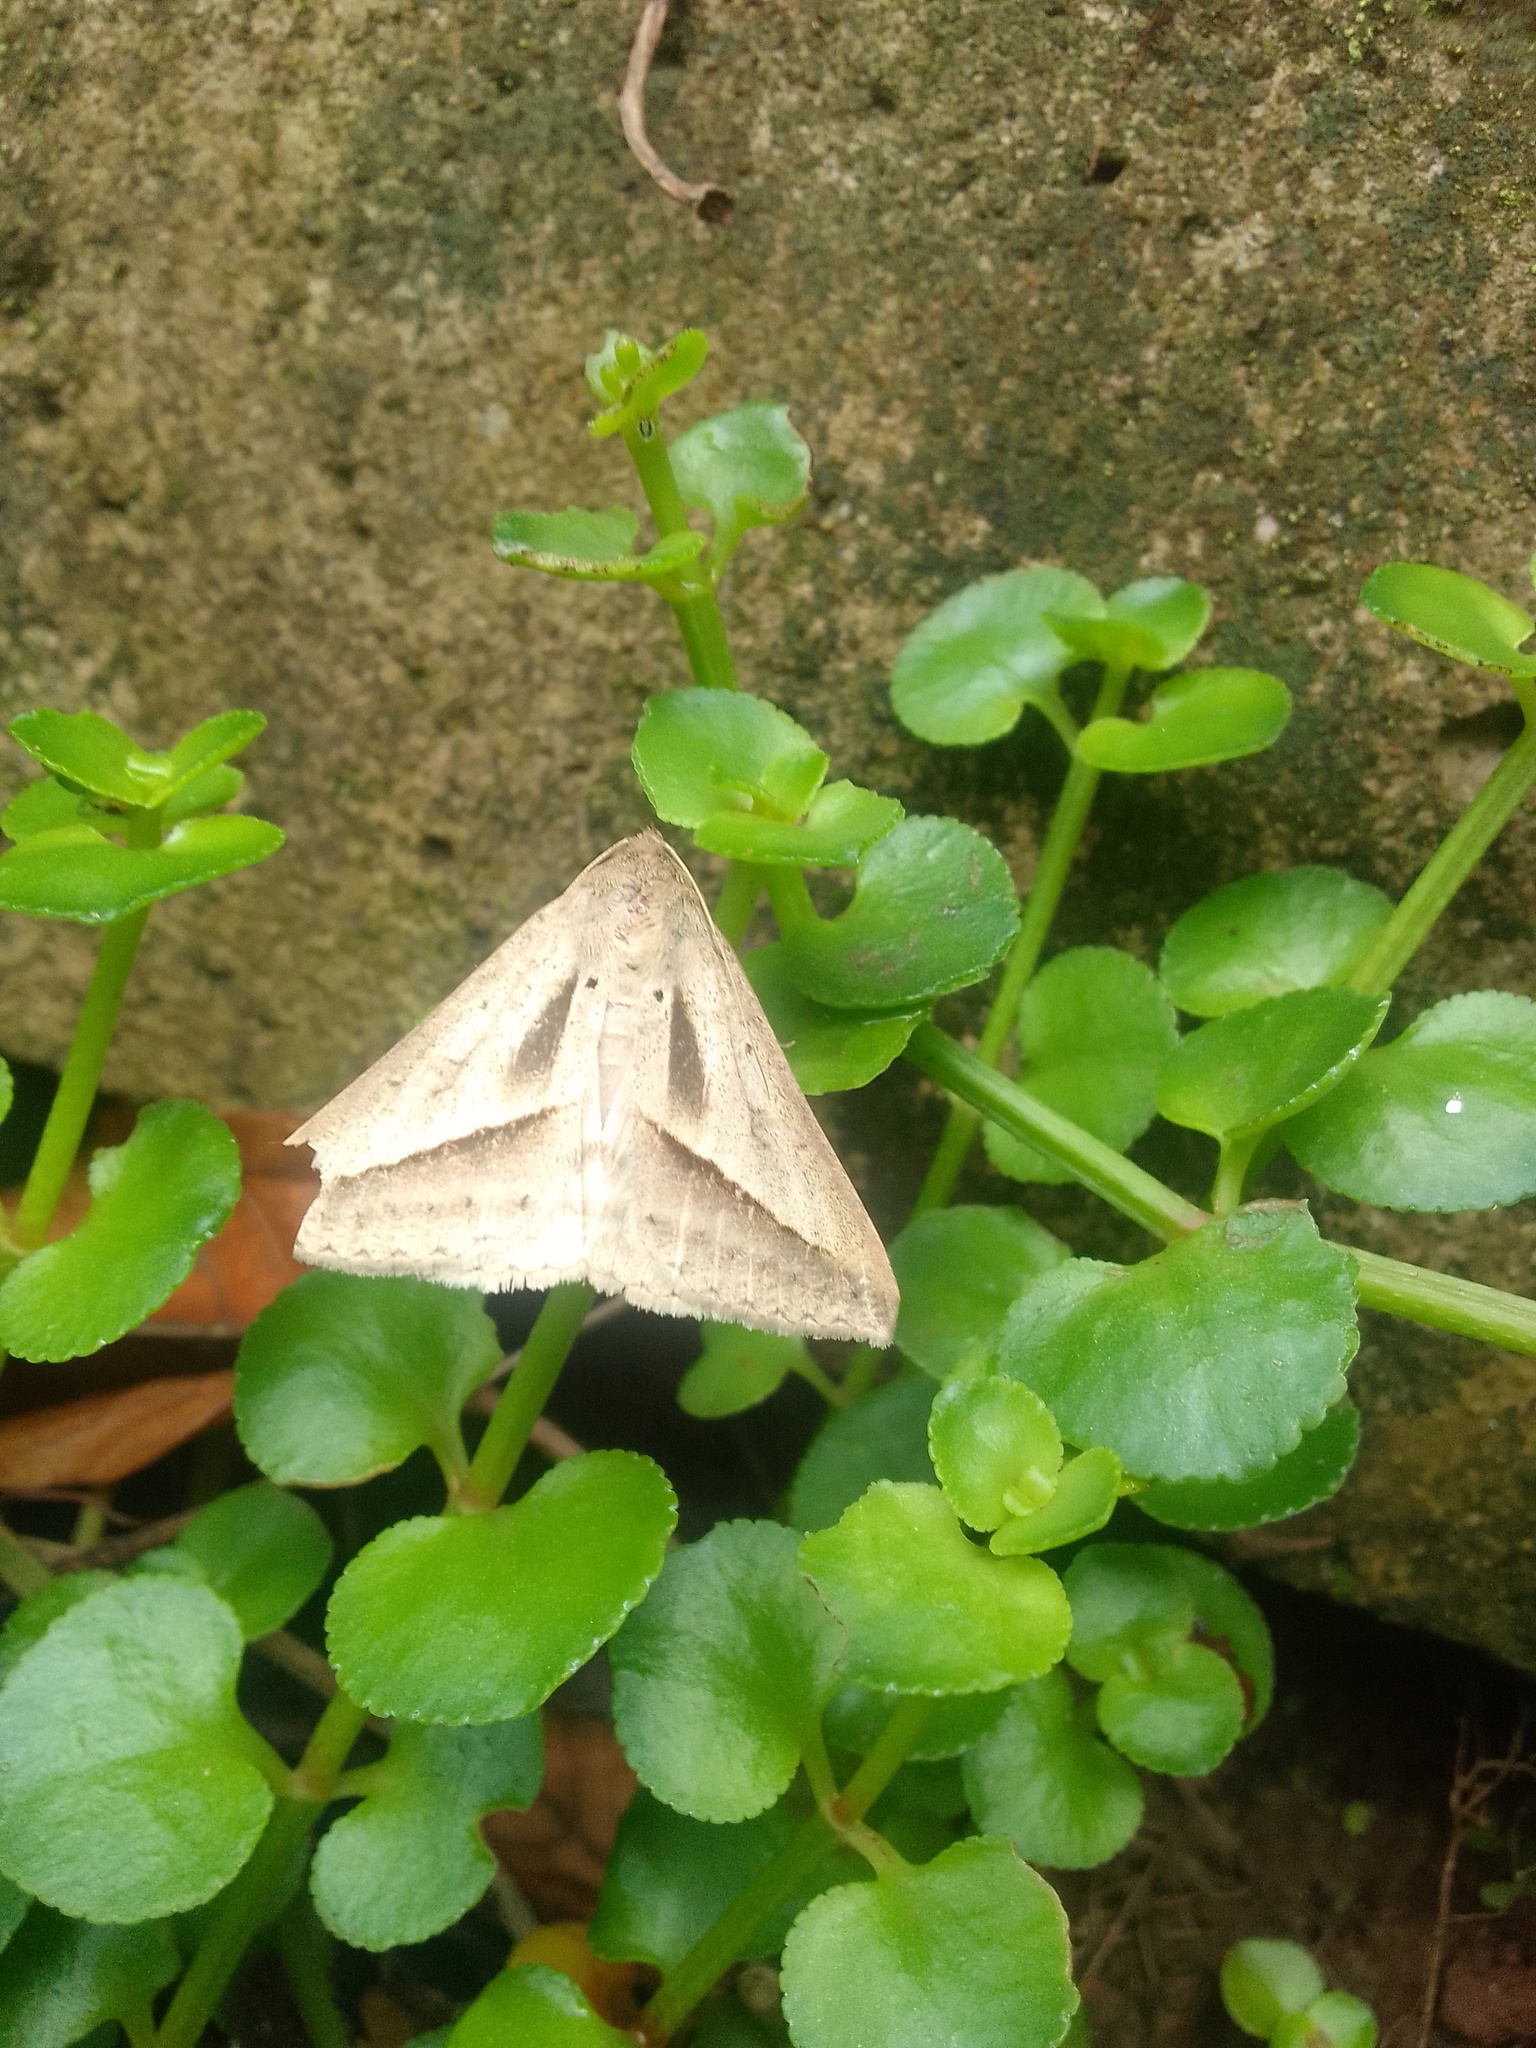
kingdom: Animalia
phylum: Arthropoda
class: Insecta
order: Lepidoptera
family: Erebidae
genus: Mocis
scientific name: Mocis proverai
